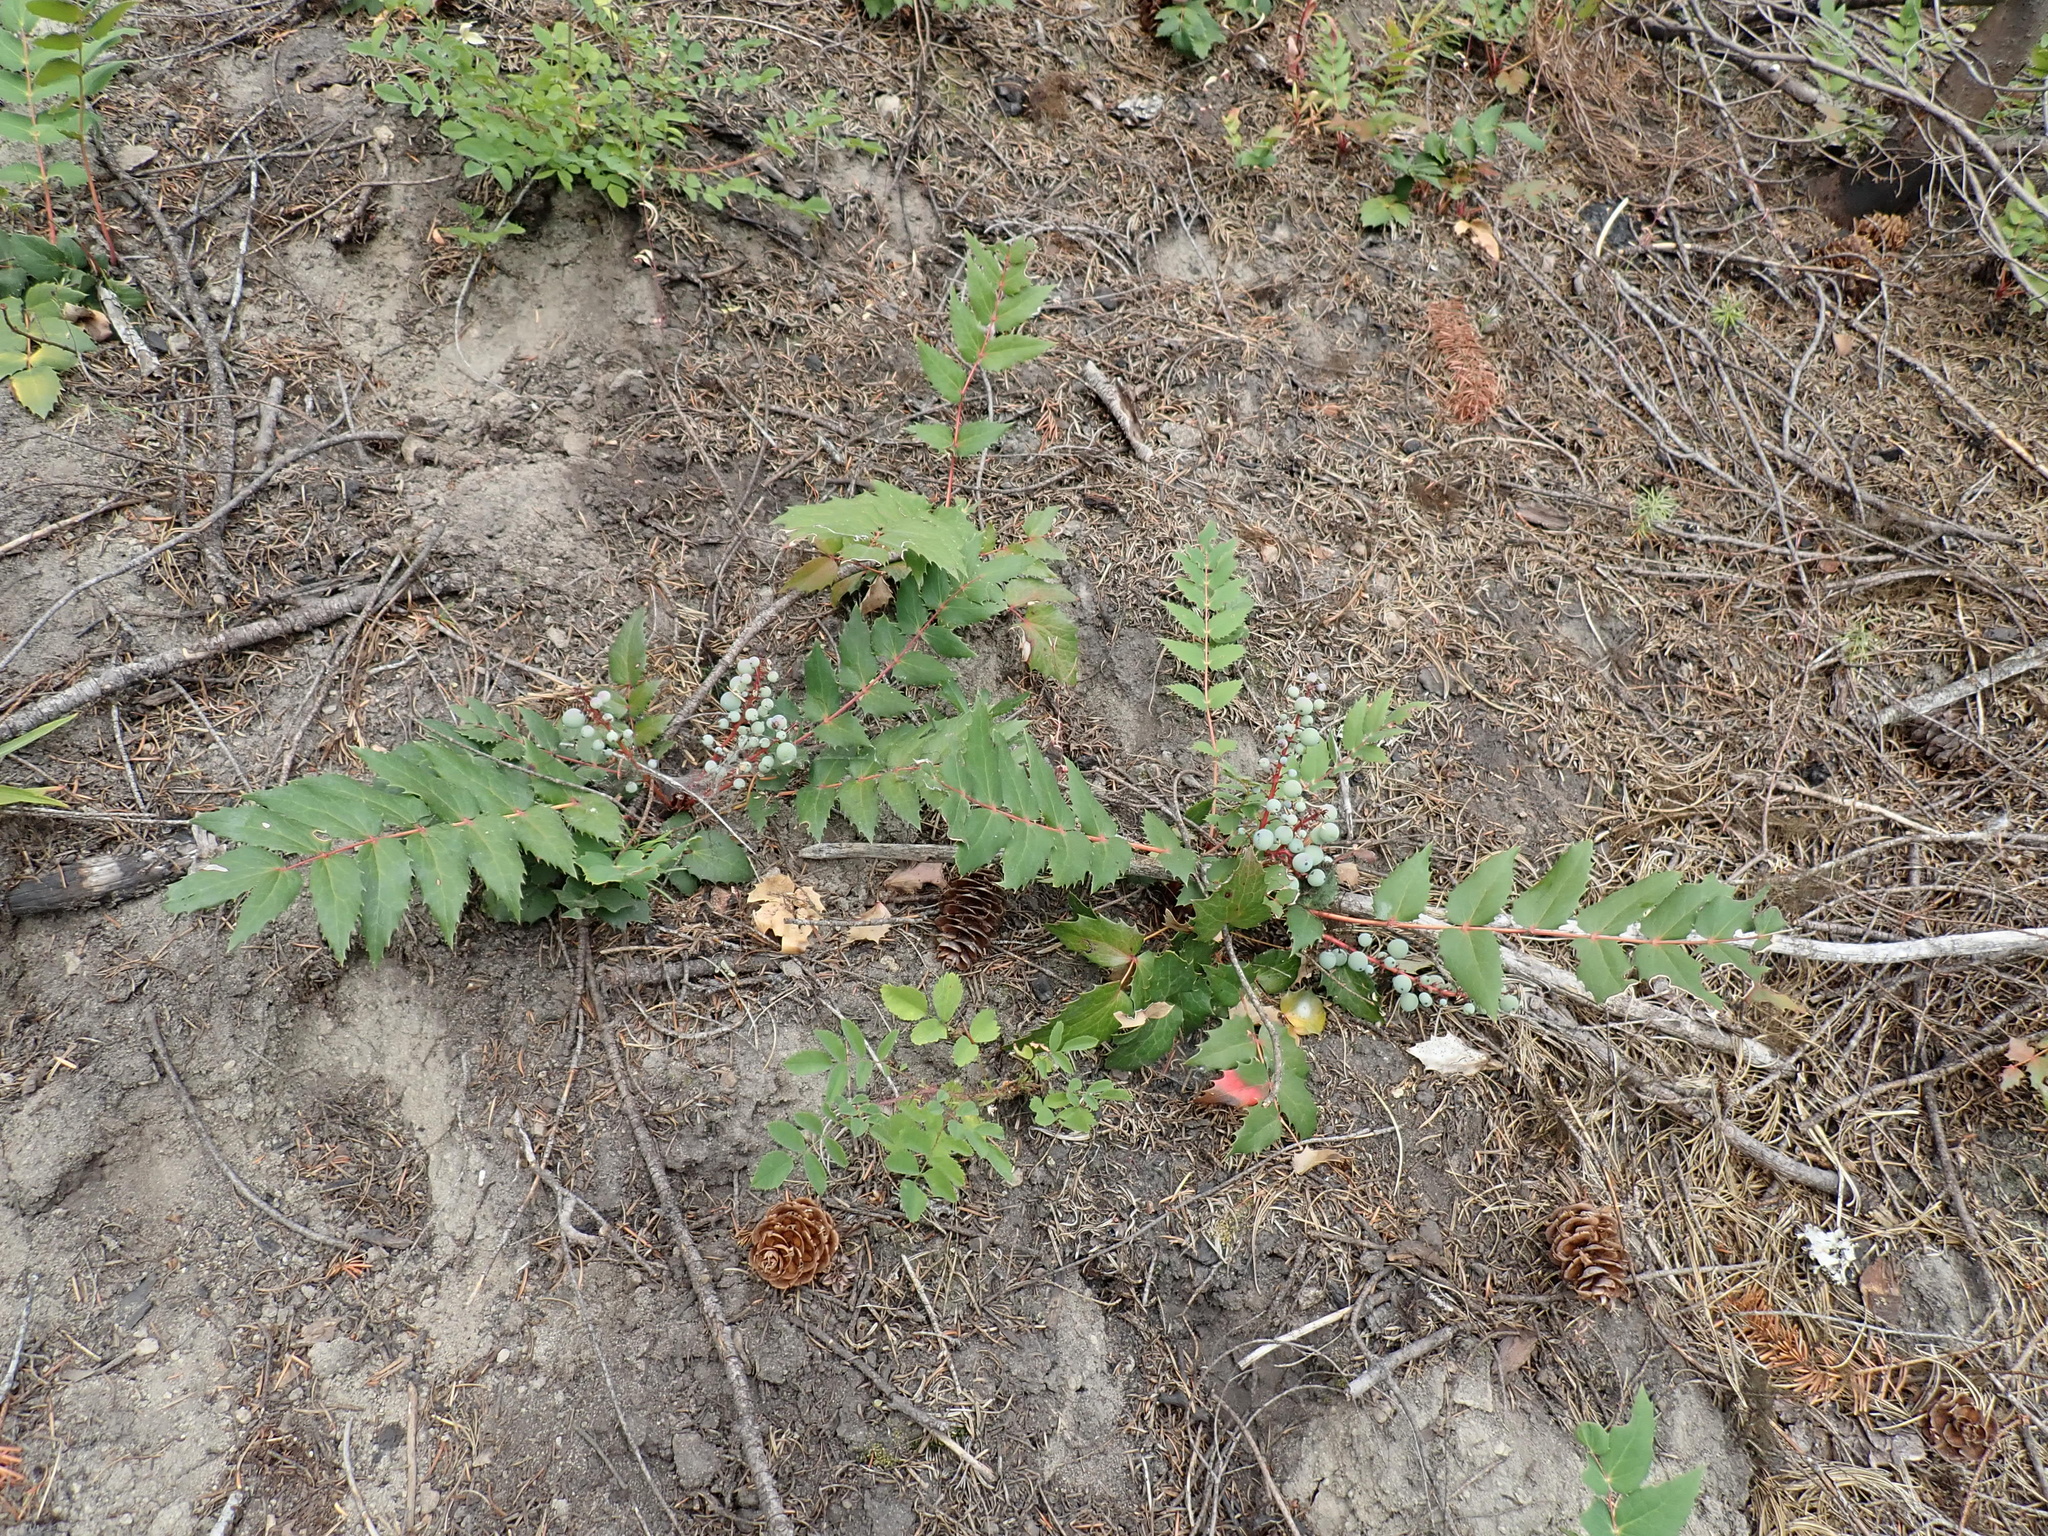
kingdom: Plantae
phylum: Tracheophyta
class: Magnoliopsida
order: Ranunculales
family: Berberidaceae
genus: Mahonia
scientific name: Mahonia nervosa
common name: Cascade oregon-grape
